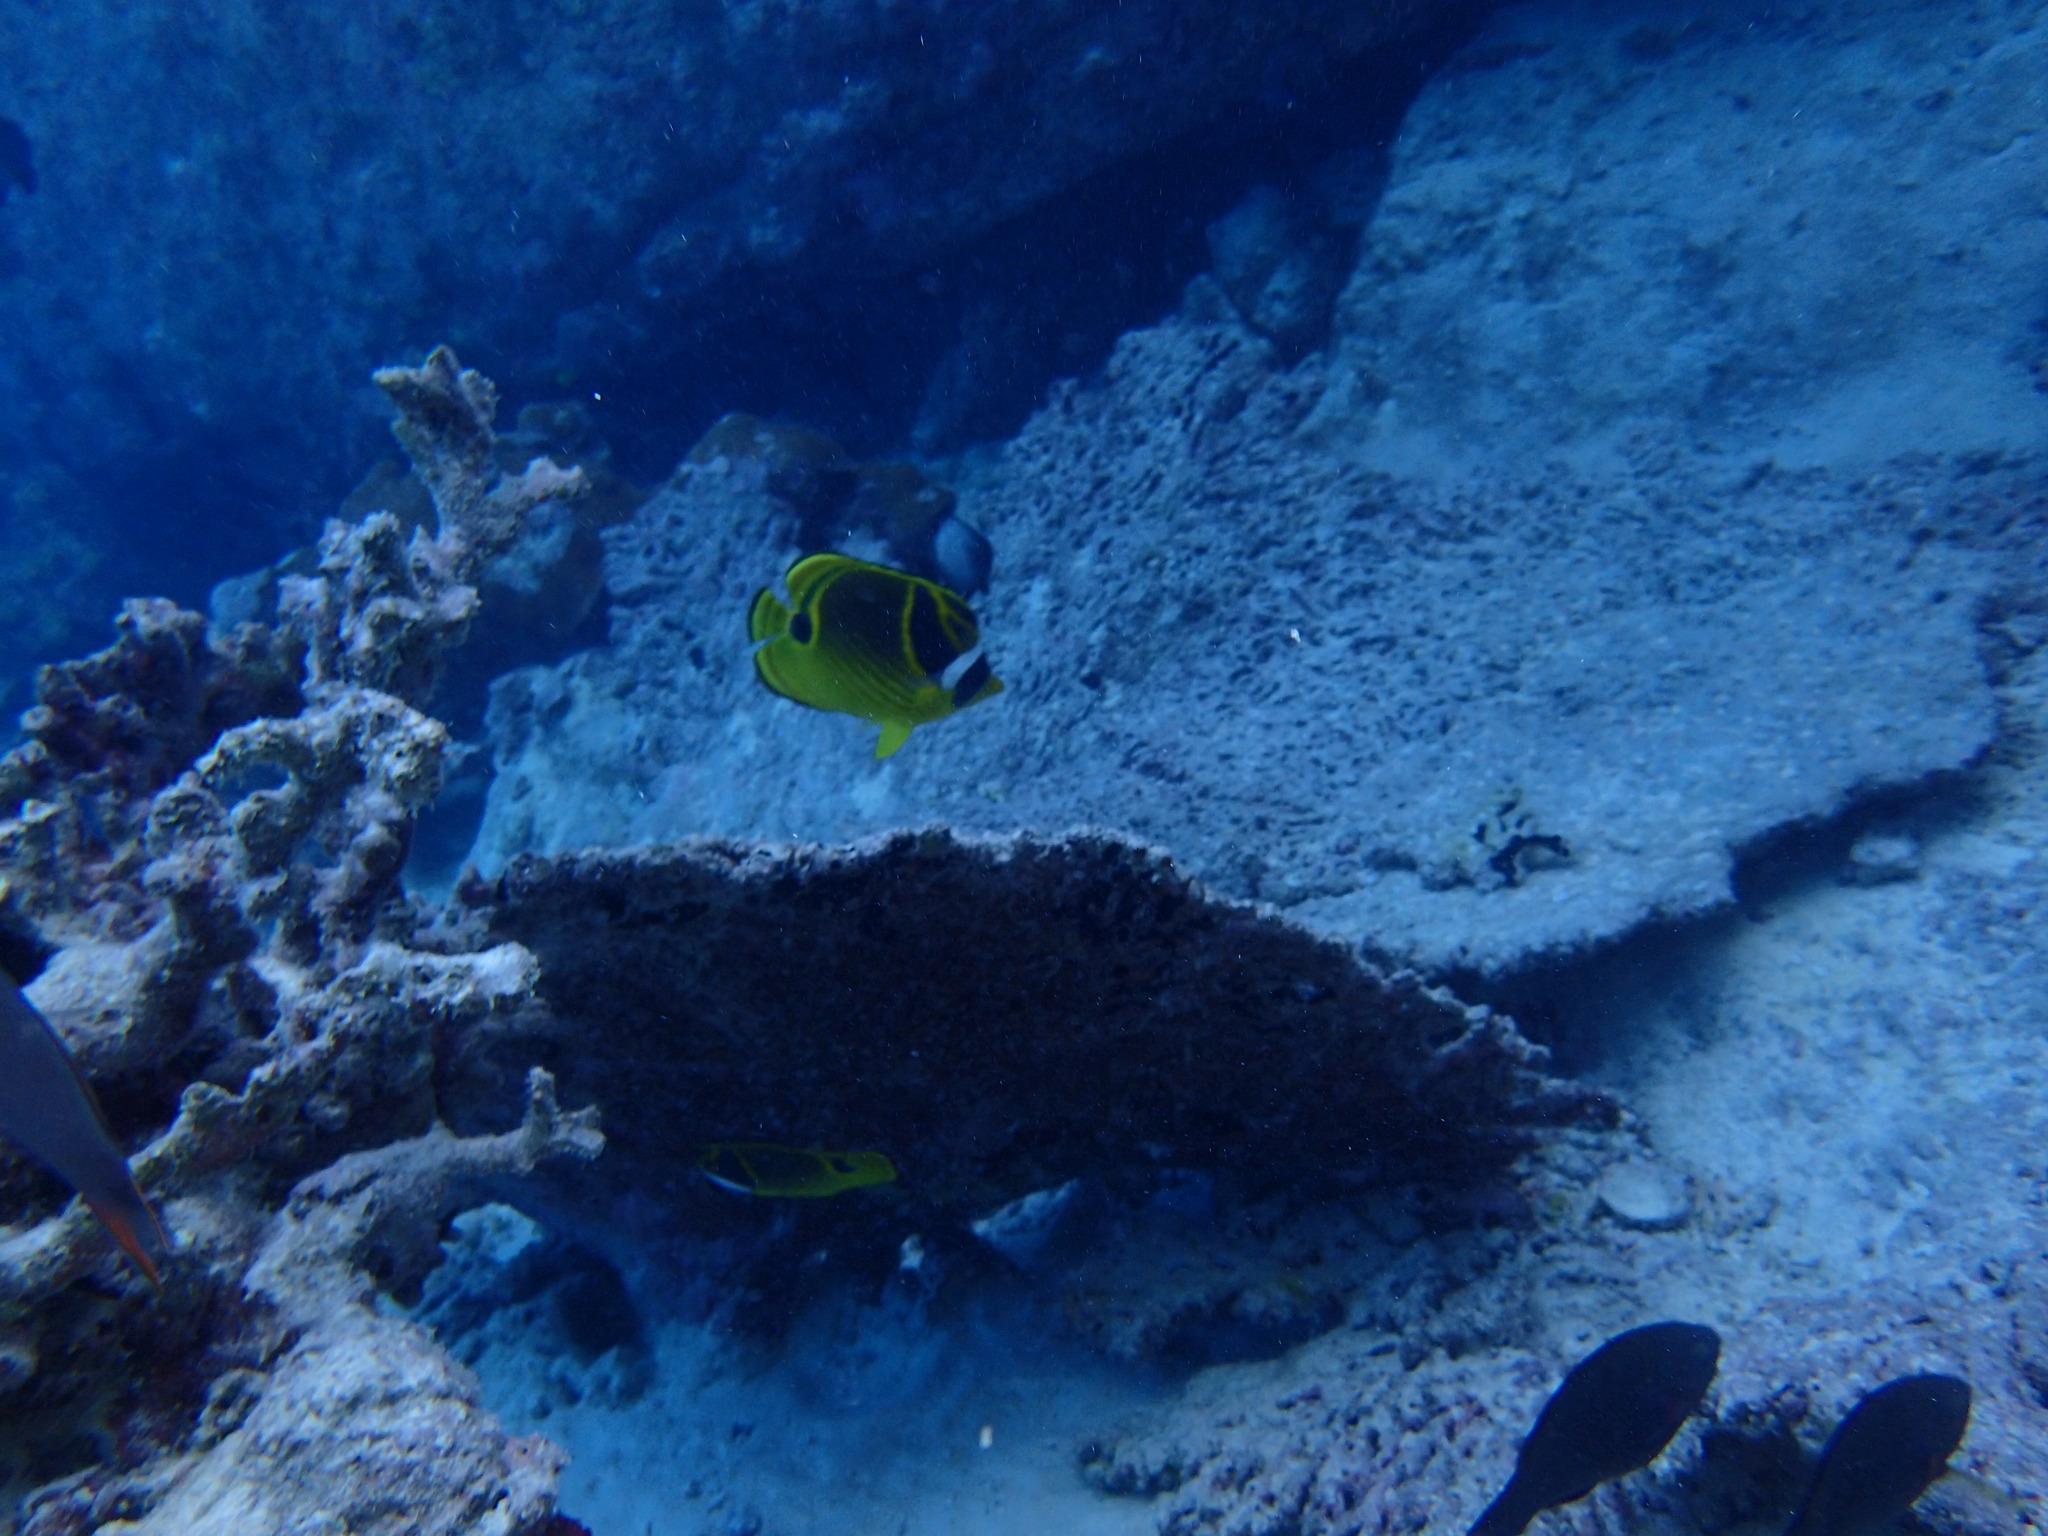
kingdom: Animalia
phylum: Chordata
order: Perciformes
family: Chaetodontidae
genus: Chaetodon
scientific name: Chaetodon lunula
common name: Raccoon butterflyfish
